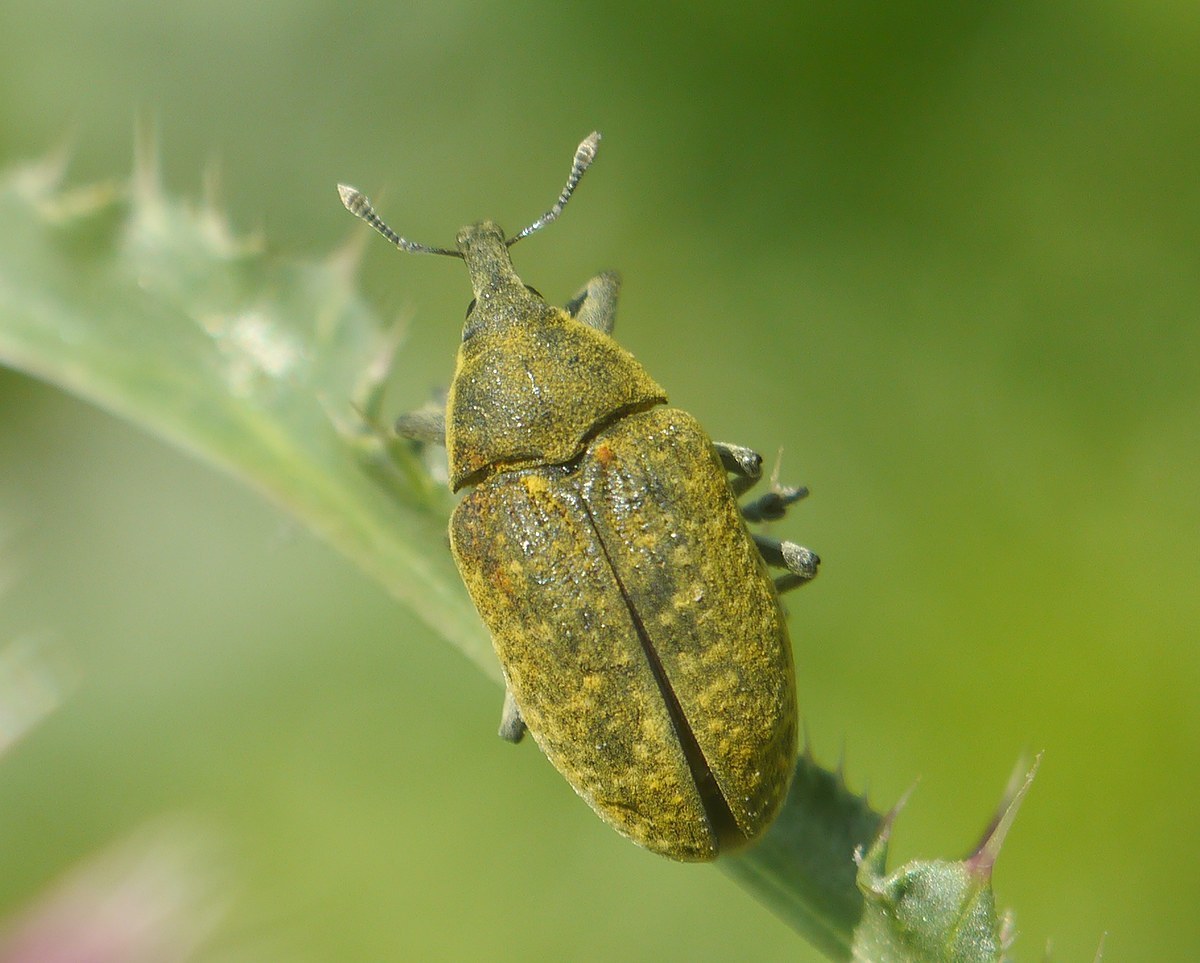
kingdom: Animalia
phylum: Arthropoda
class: Insecta
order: Coleoptera
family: Curculionidae
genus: Larinus
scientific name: Larinus latus
